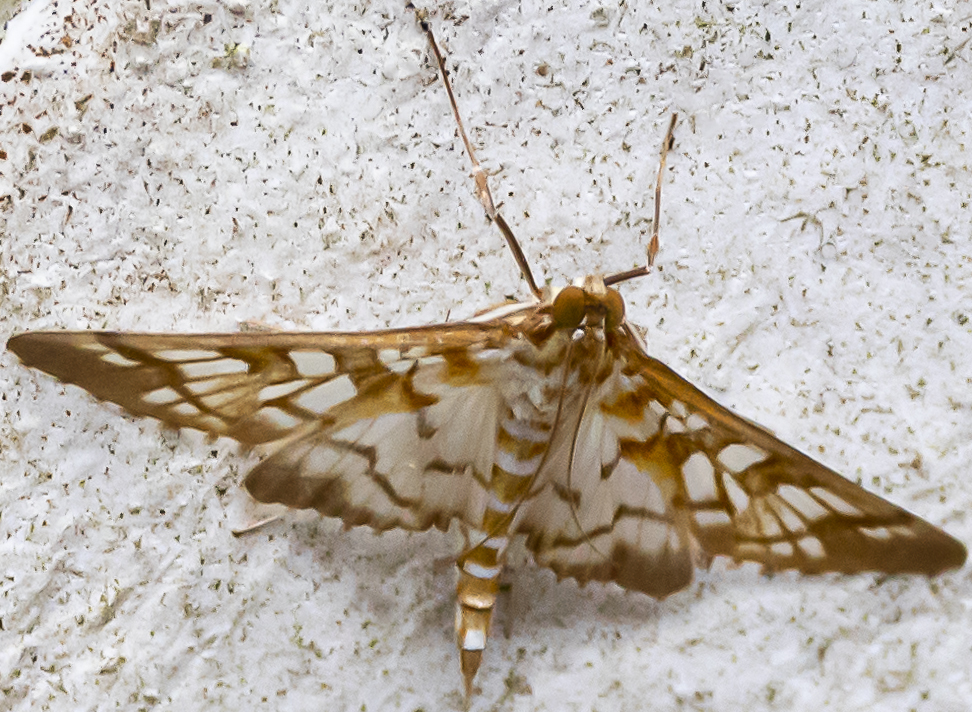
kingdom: Animalia
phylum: Arthropoda
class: Insecta
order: Lepidoptera
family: Crambidae
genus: Epipagis
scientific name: Epipagis fenestralis
